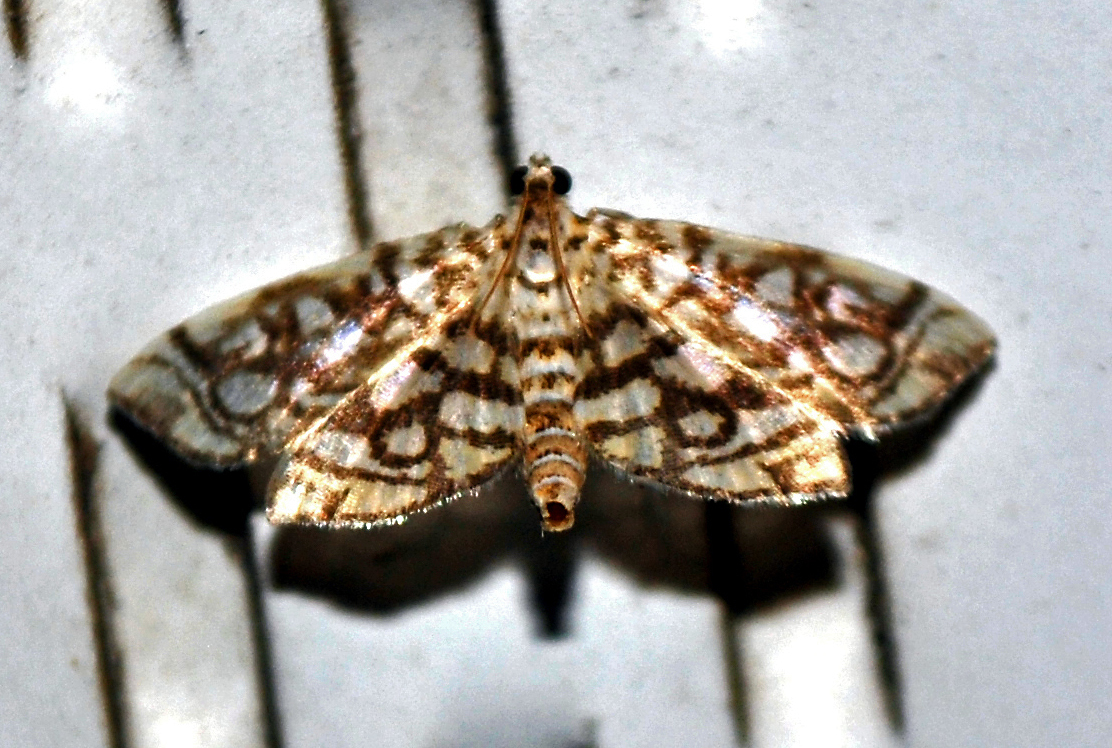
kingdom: Animalia
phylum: Arthropoda
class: Insecta
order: Lepidoptera
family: Crambidae
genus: Lygropia
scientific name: Lygropia rivulalis
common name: Bog lygropia moth
